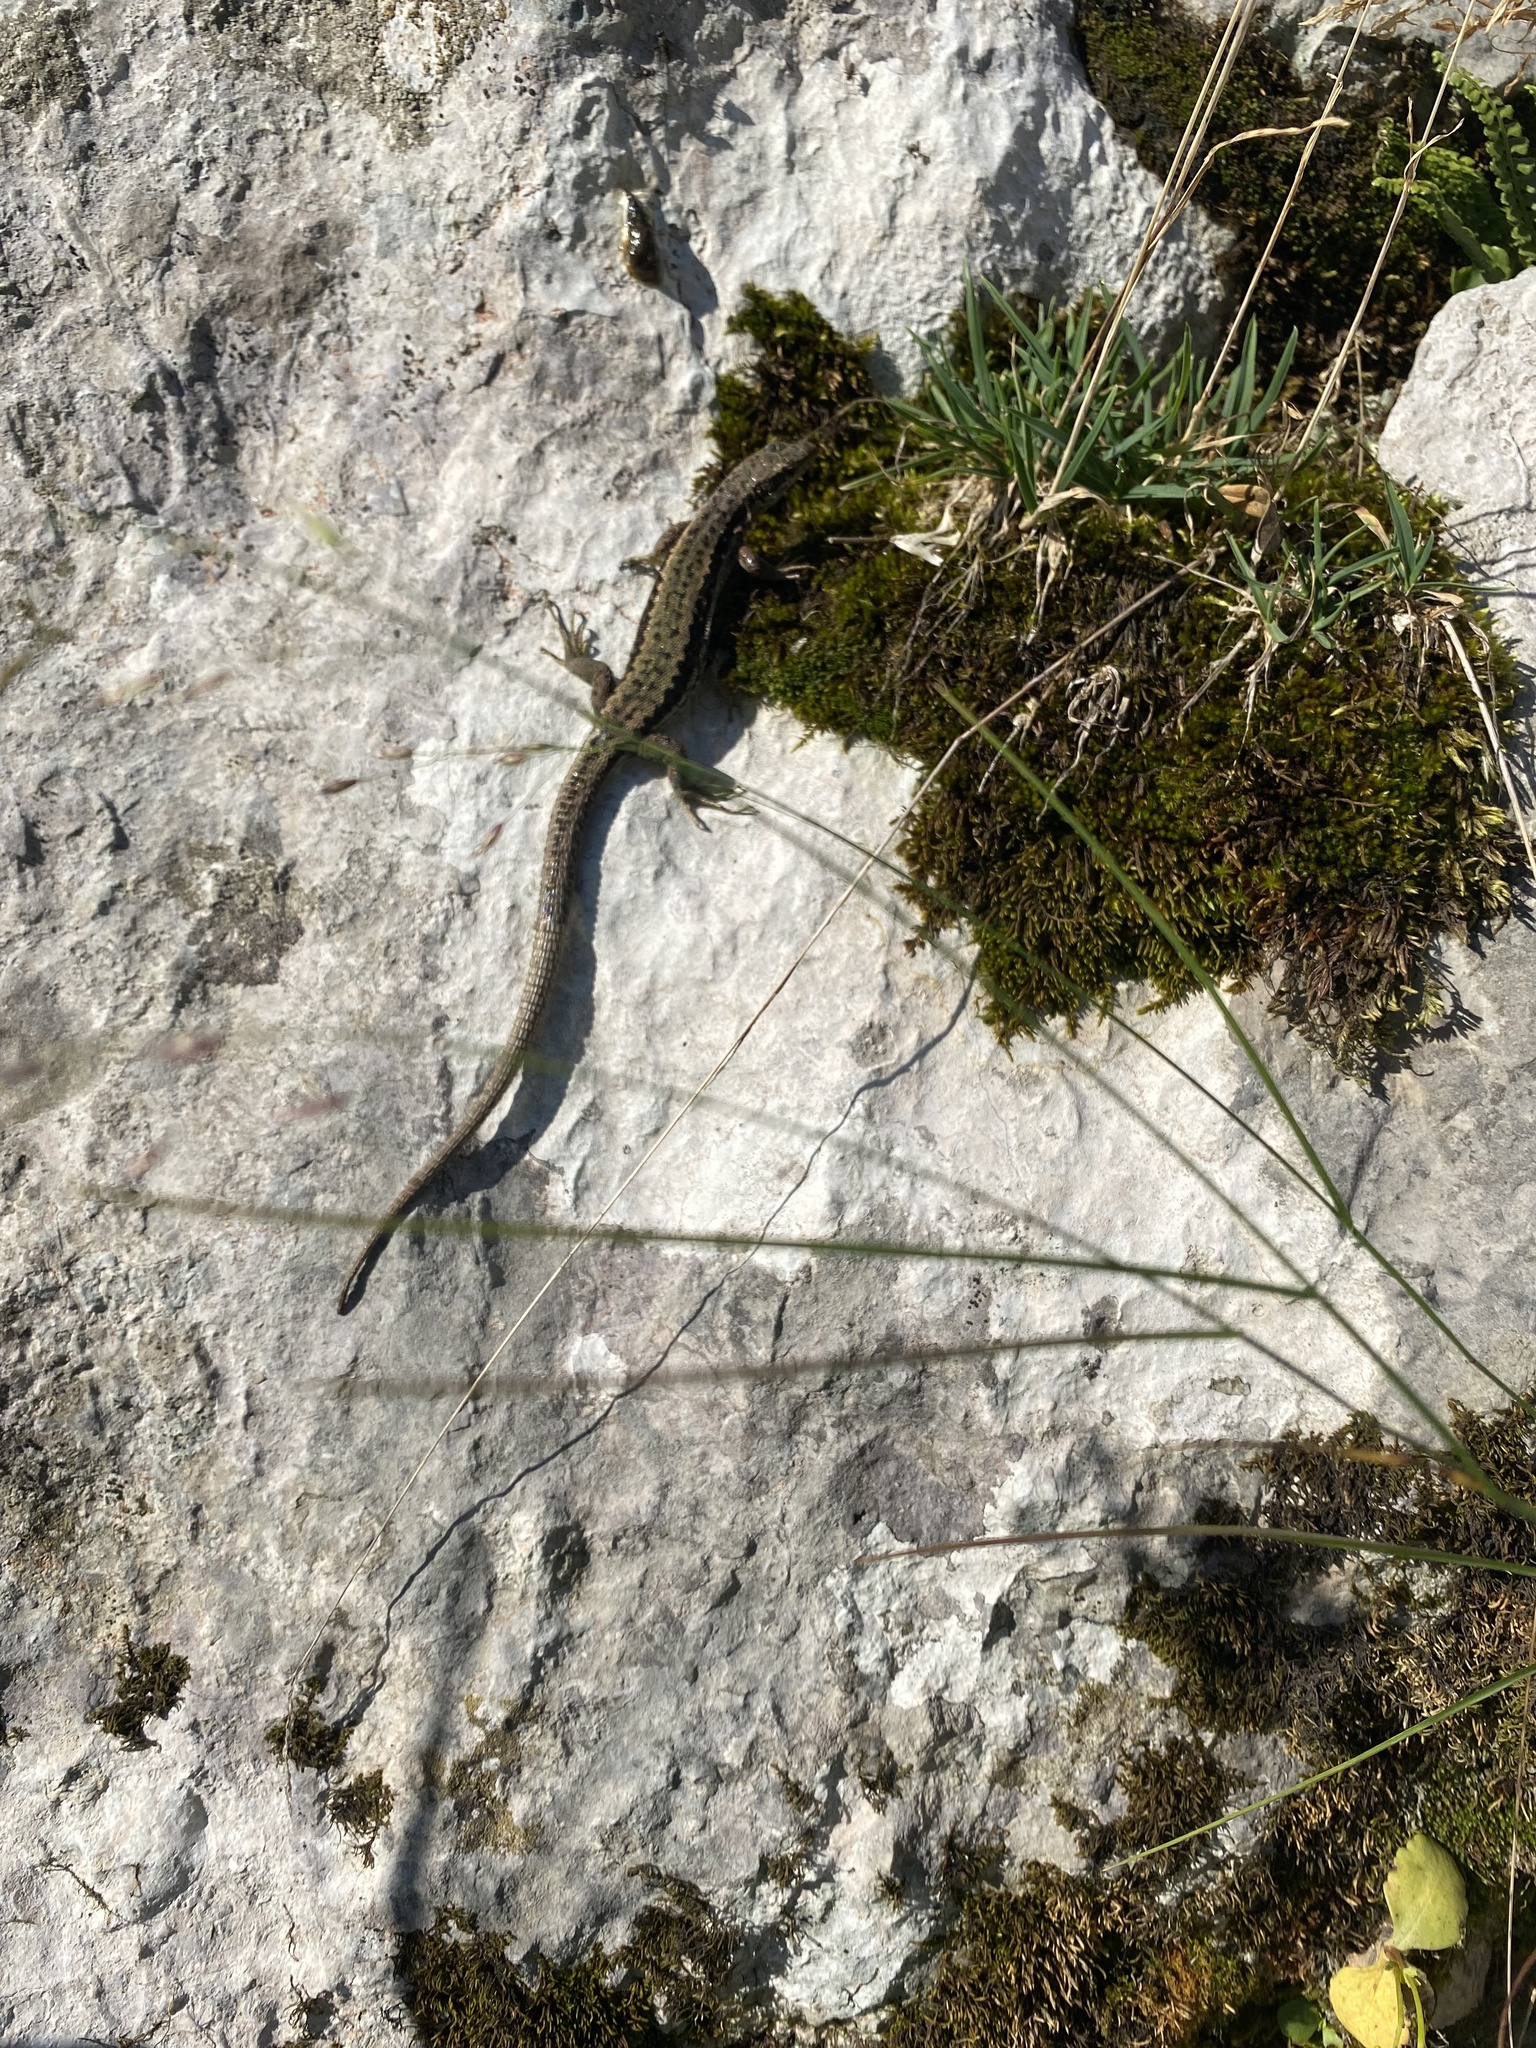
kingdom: Animalia
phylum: Chordata
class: Squamata
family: Lacertidae
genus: Darevskia
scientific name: Darevskia brauneri
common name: Brauner's rock lizard
